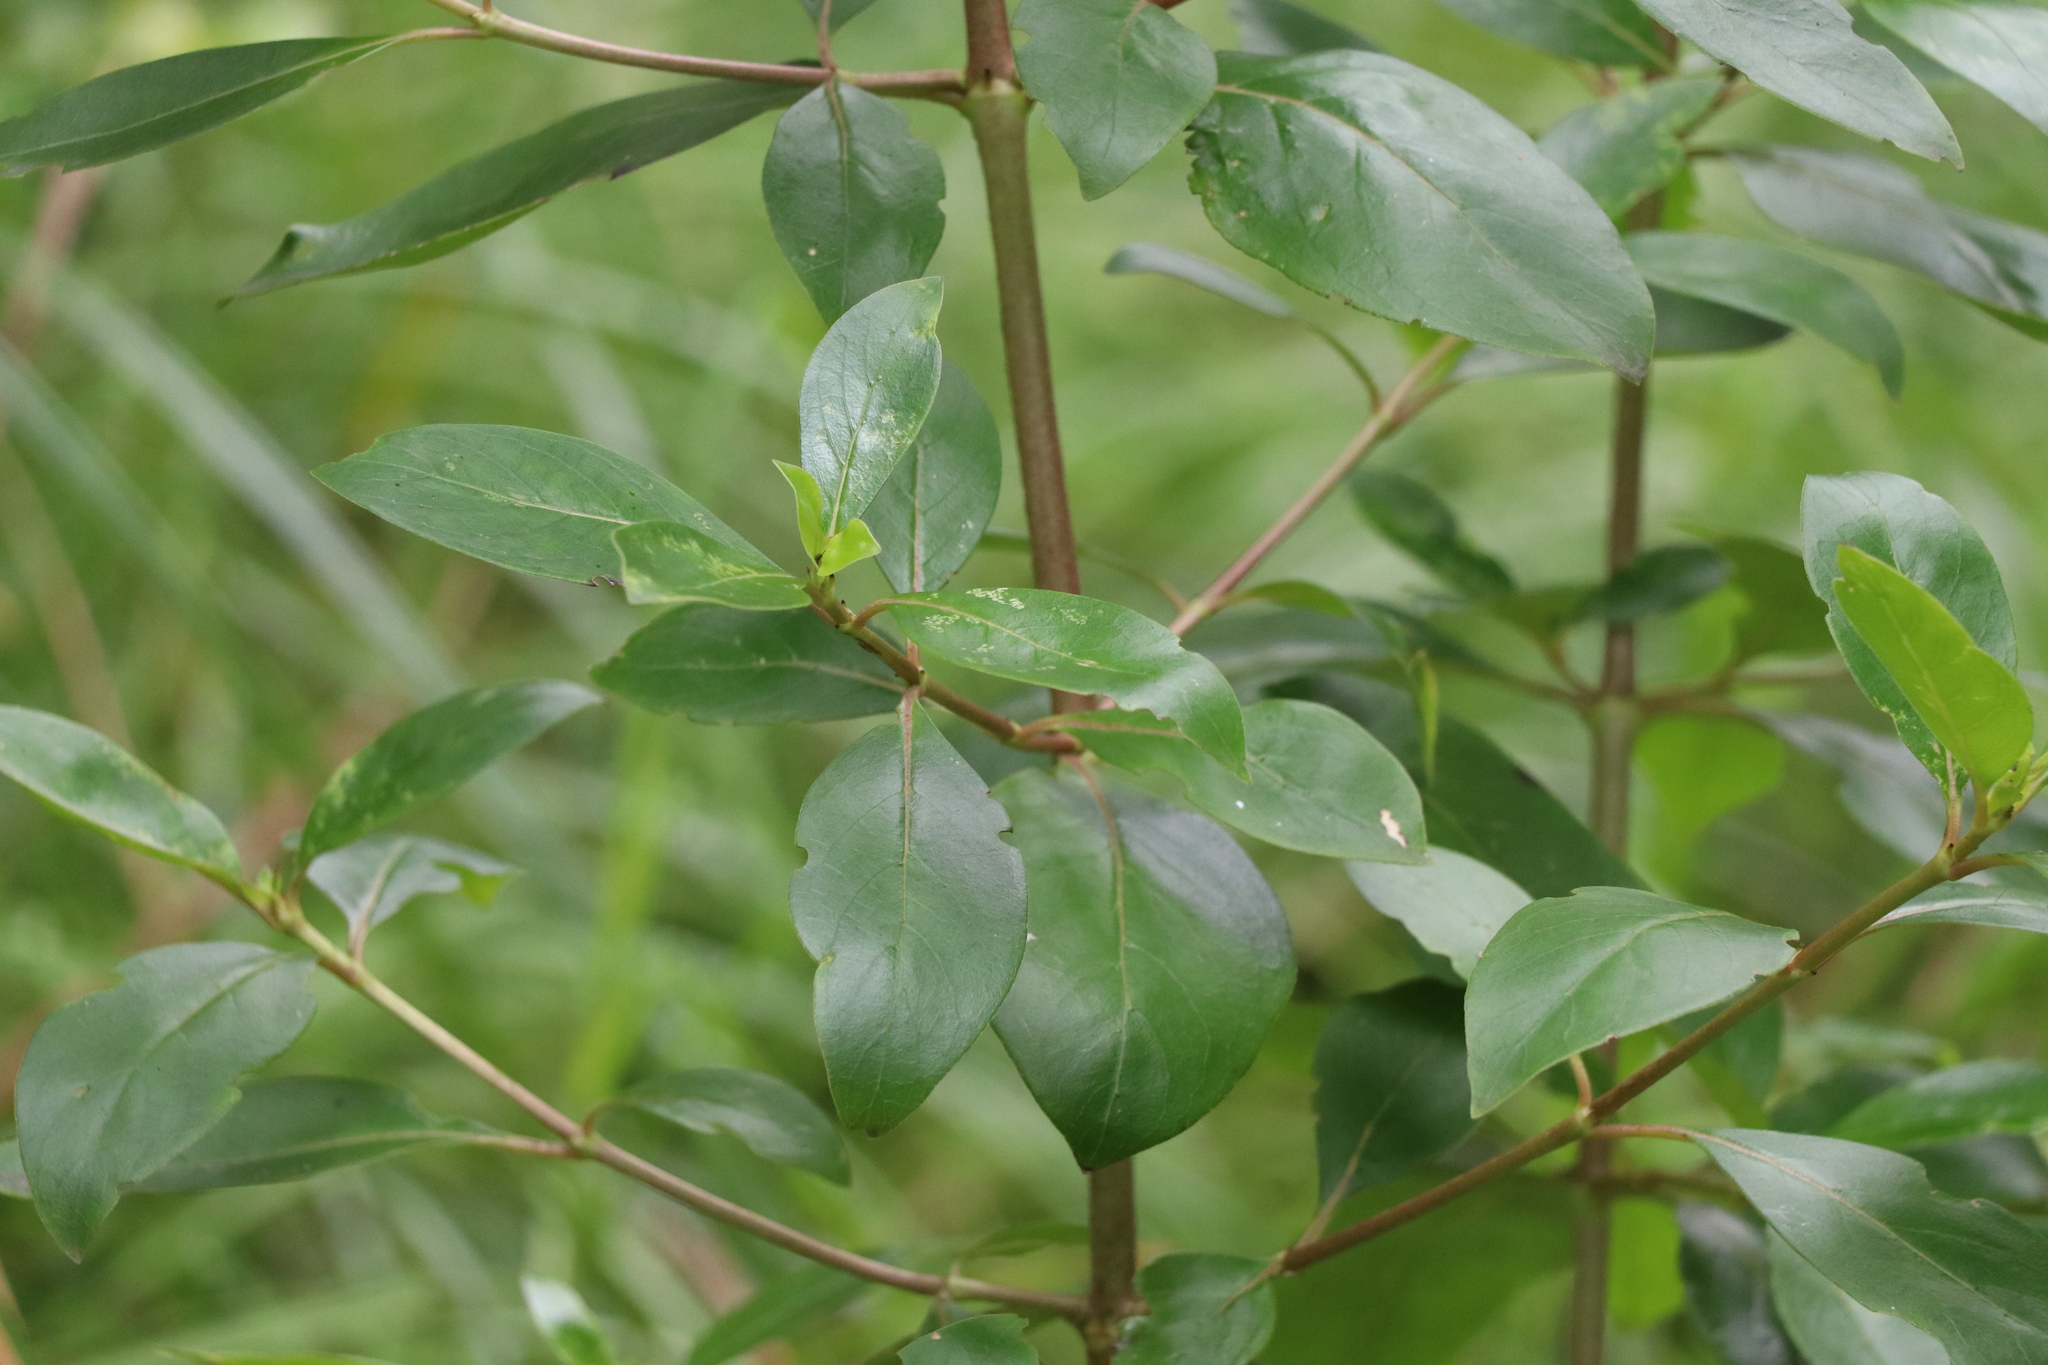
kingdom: Plantae
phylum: Tracheophyta
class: Magnoliopsida
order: Gentianales
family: Rubiaceae
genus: Coprosma
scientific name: Coprosma robusta
